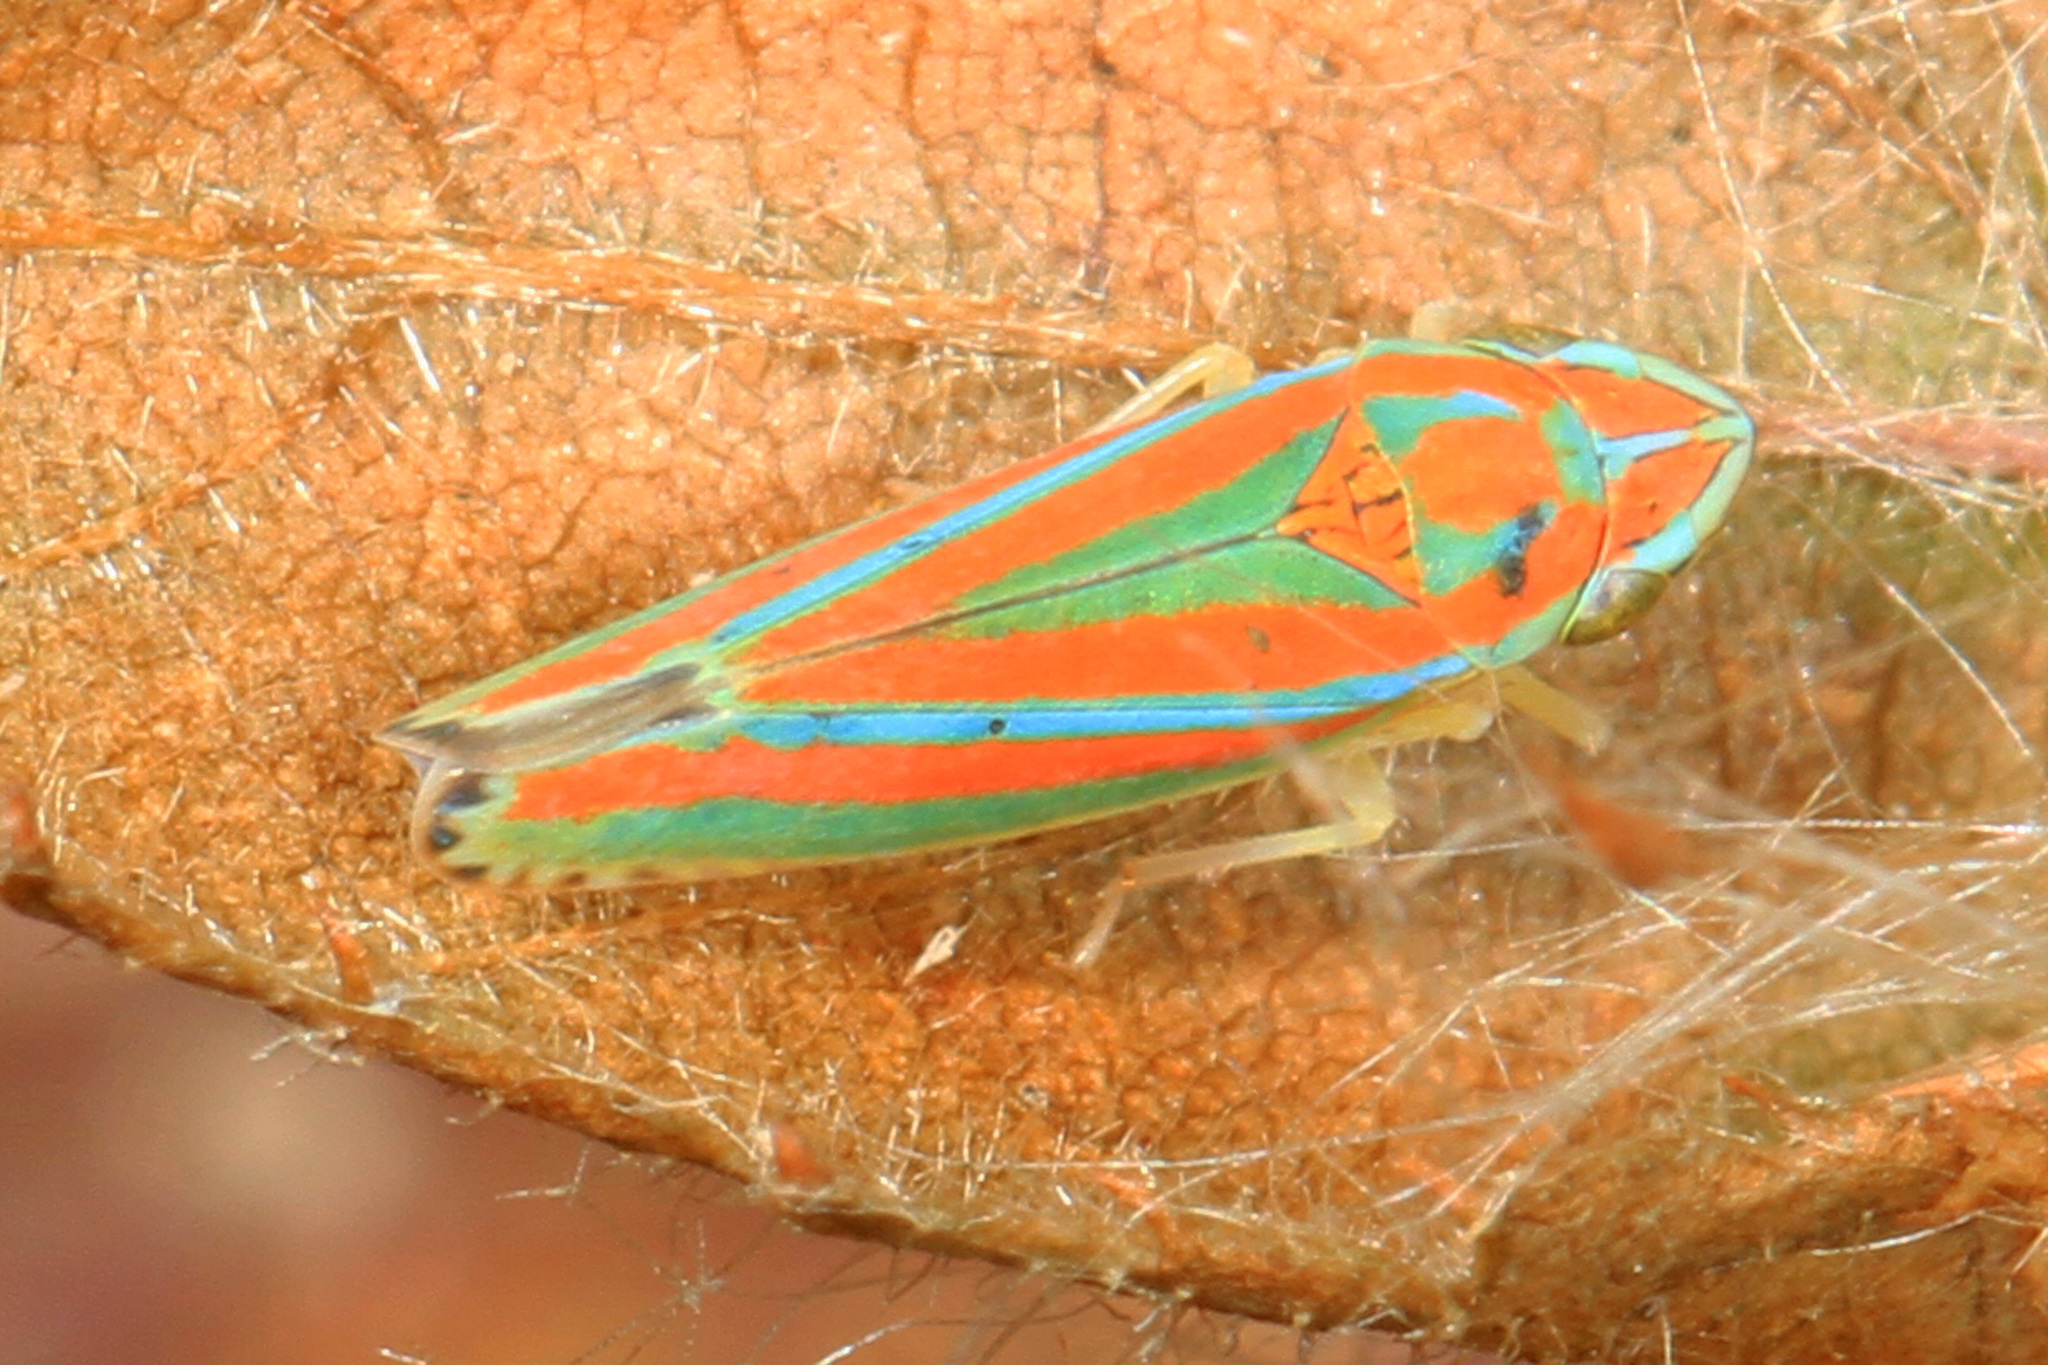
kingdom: Animalia
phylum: Arthropoda
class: Insecta
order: Hemiptera
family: Cicadellidae
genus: Graphocephala
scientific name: Graphocephala versuta
